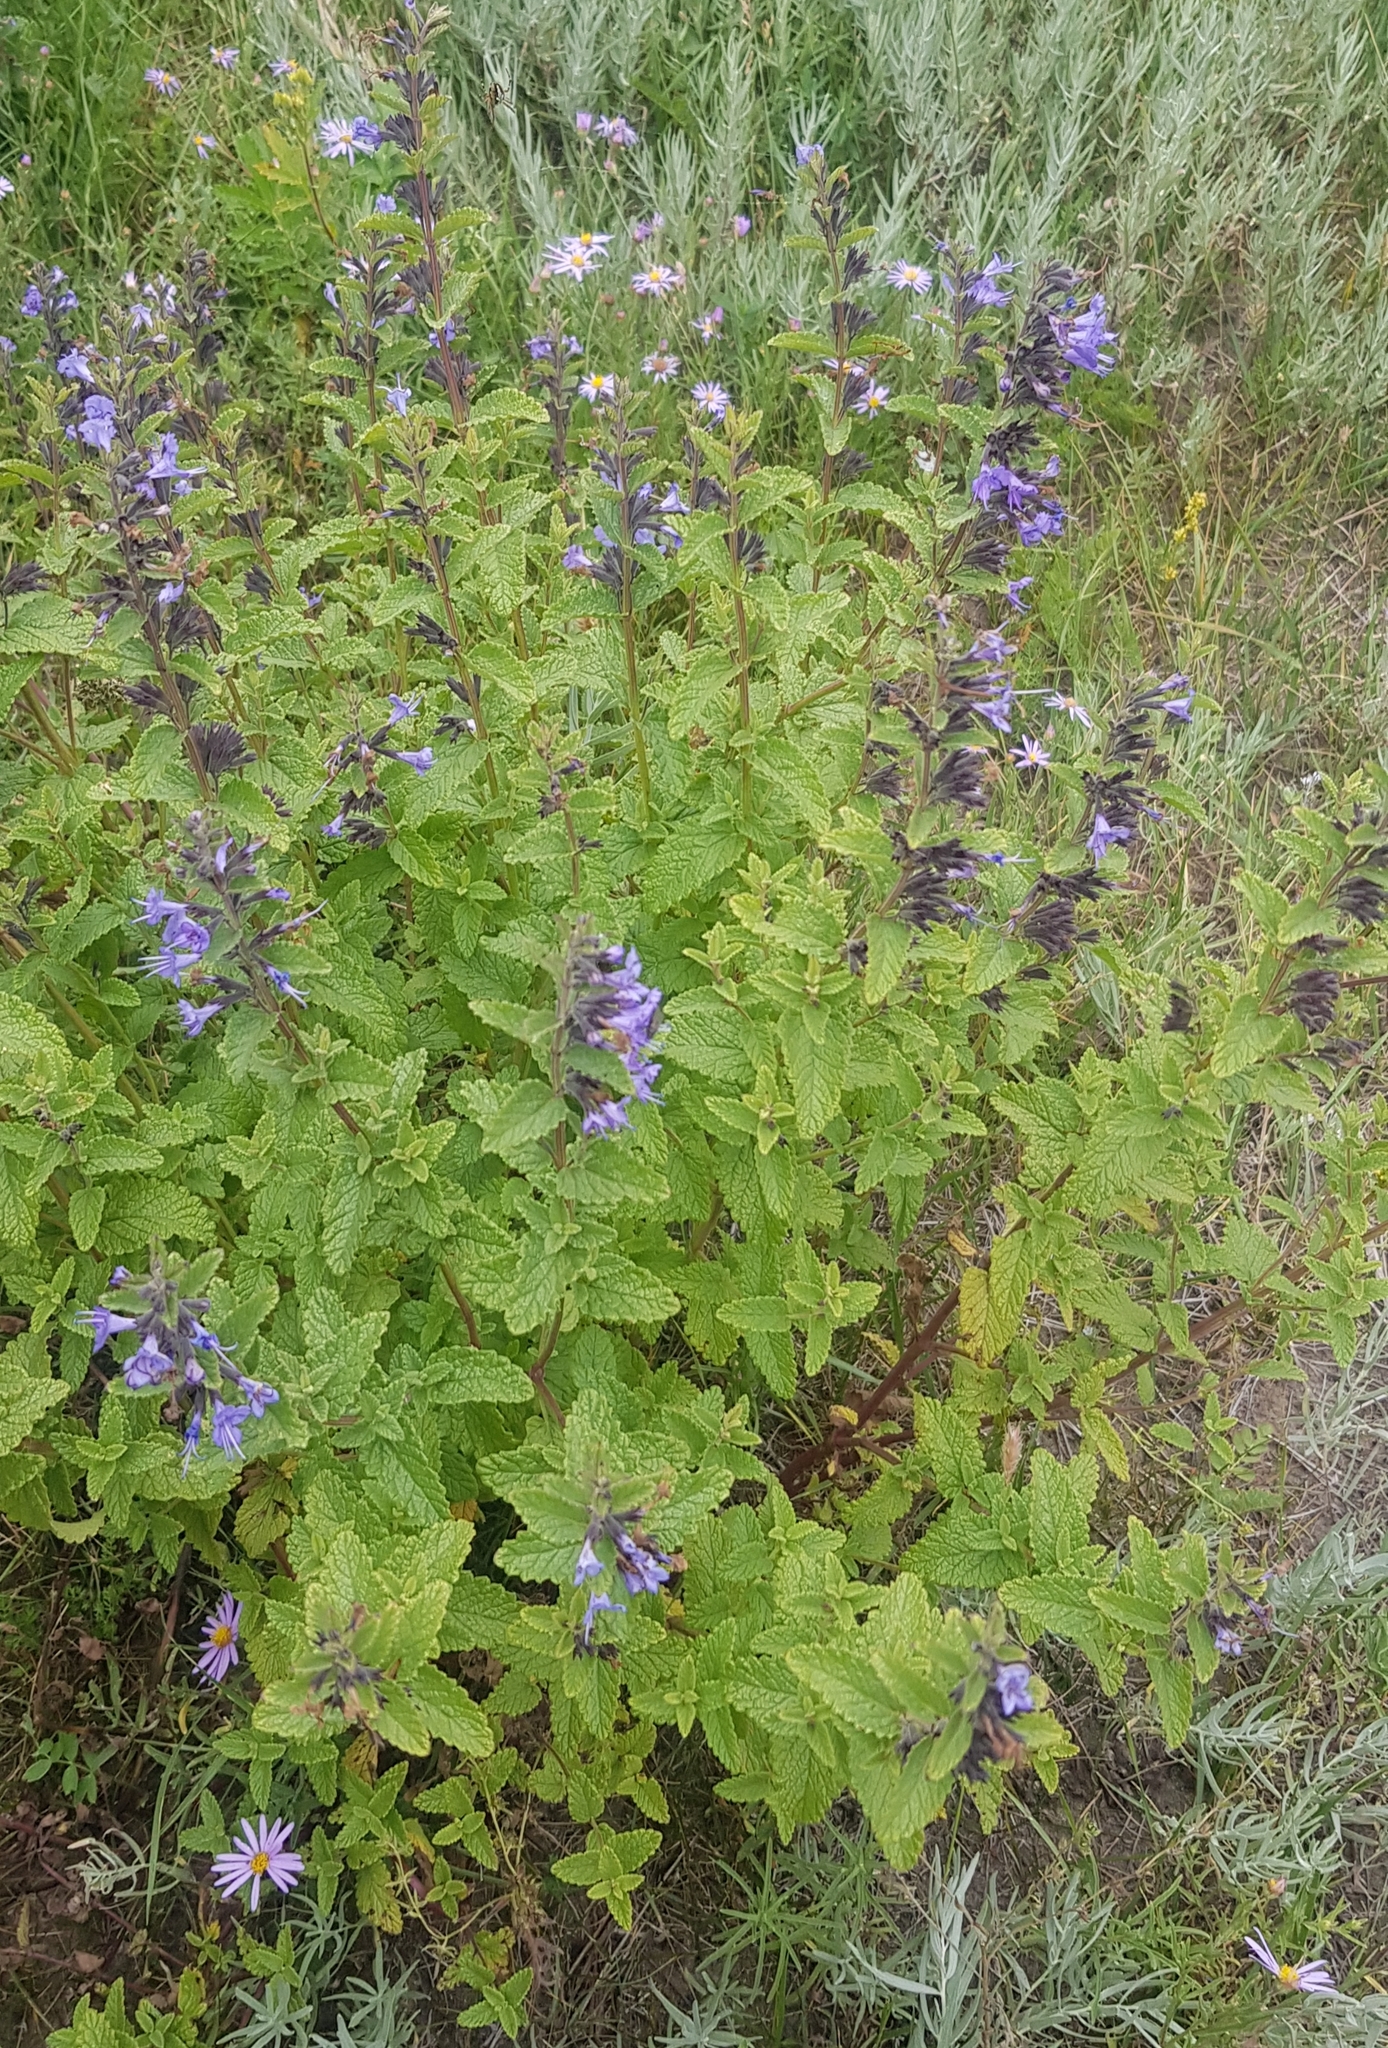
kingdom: Plantae
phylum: Tracheophyta
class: Magnoliopsida
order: Lamiales
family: Lamiaceae
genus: Nepeta
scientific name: Nepeta lophanthus
